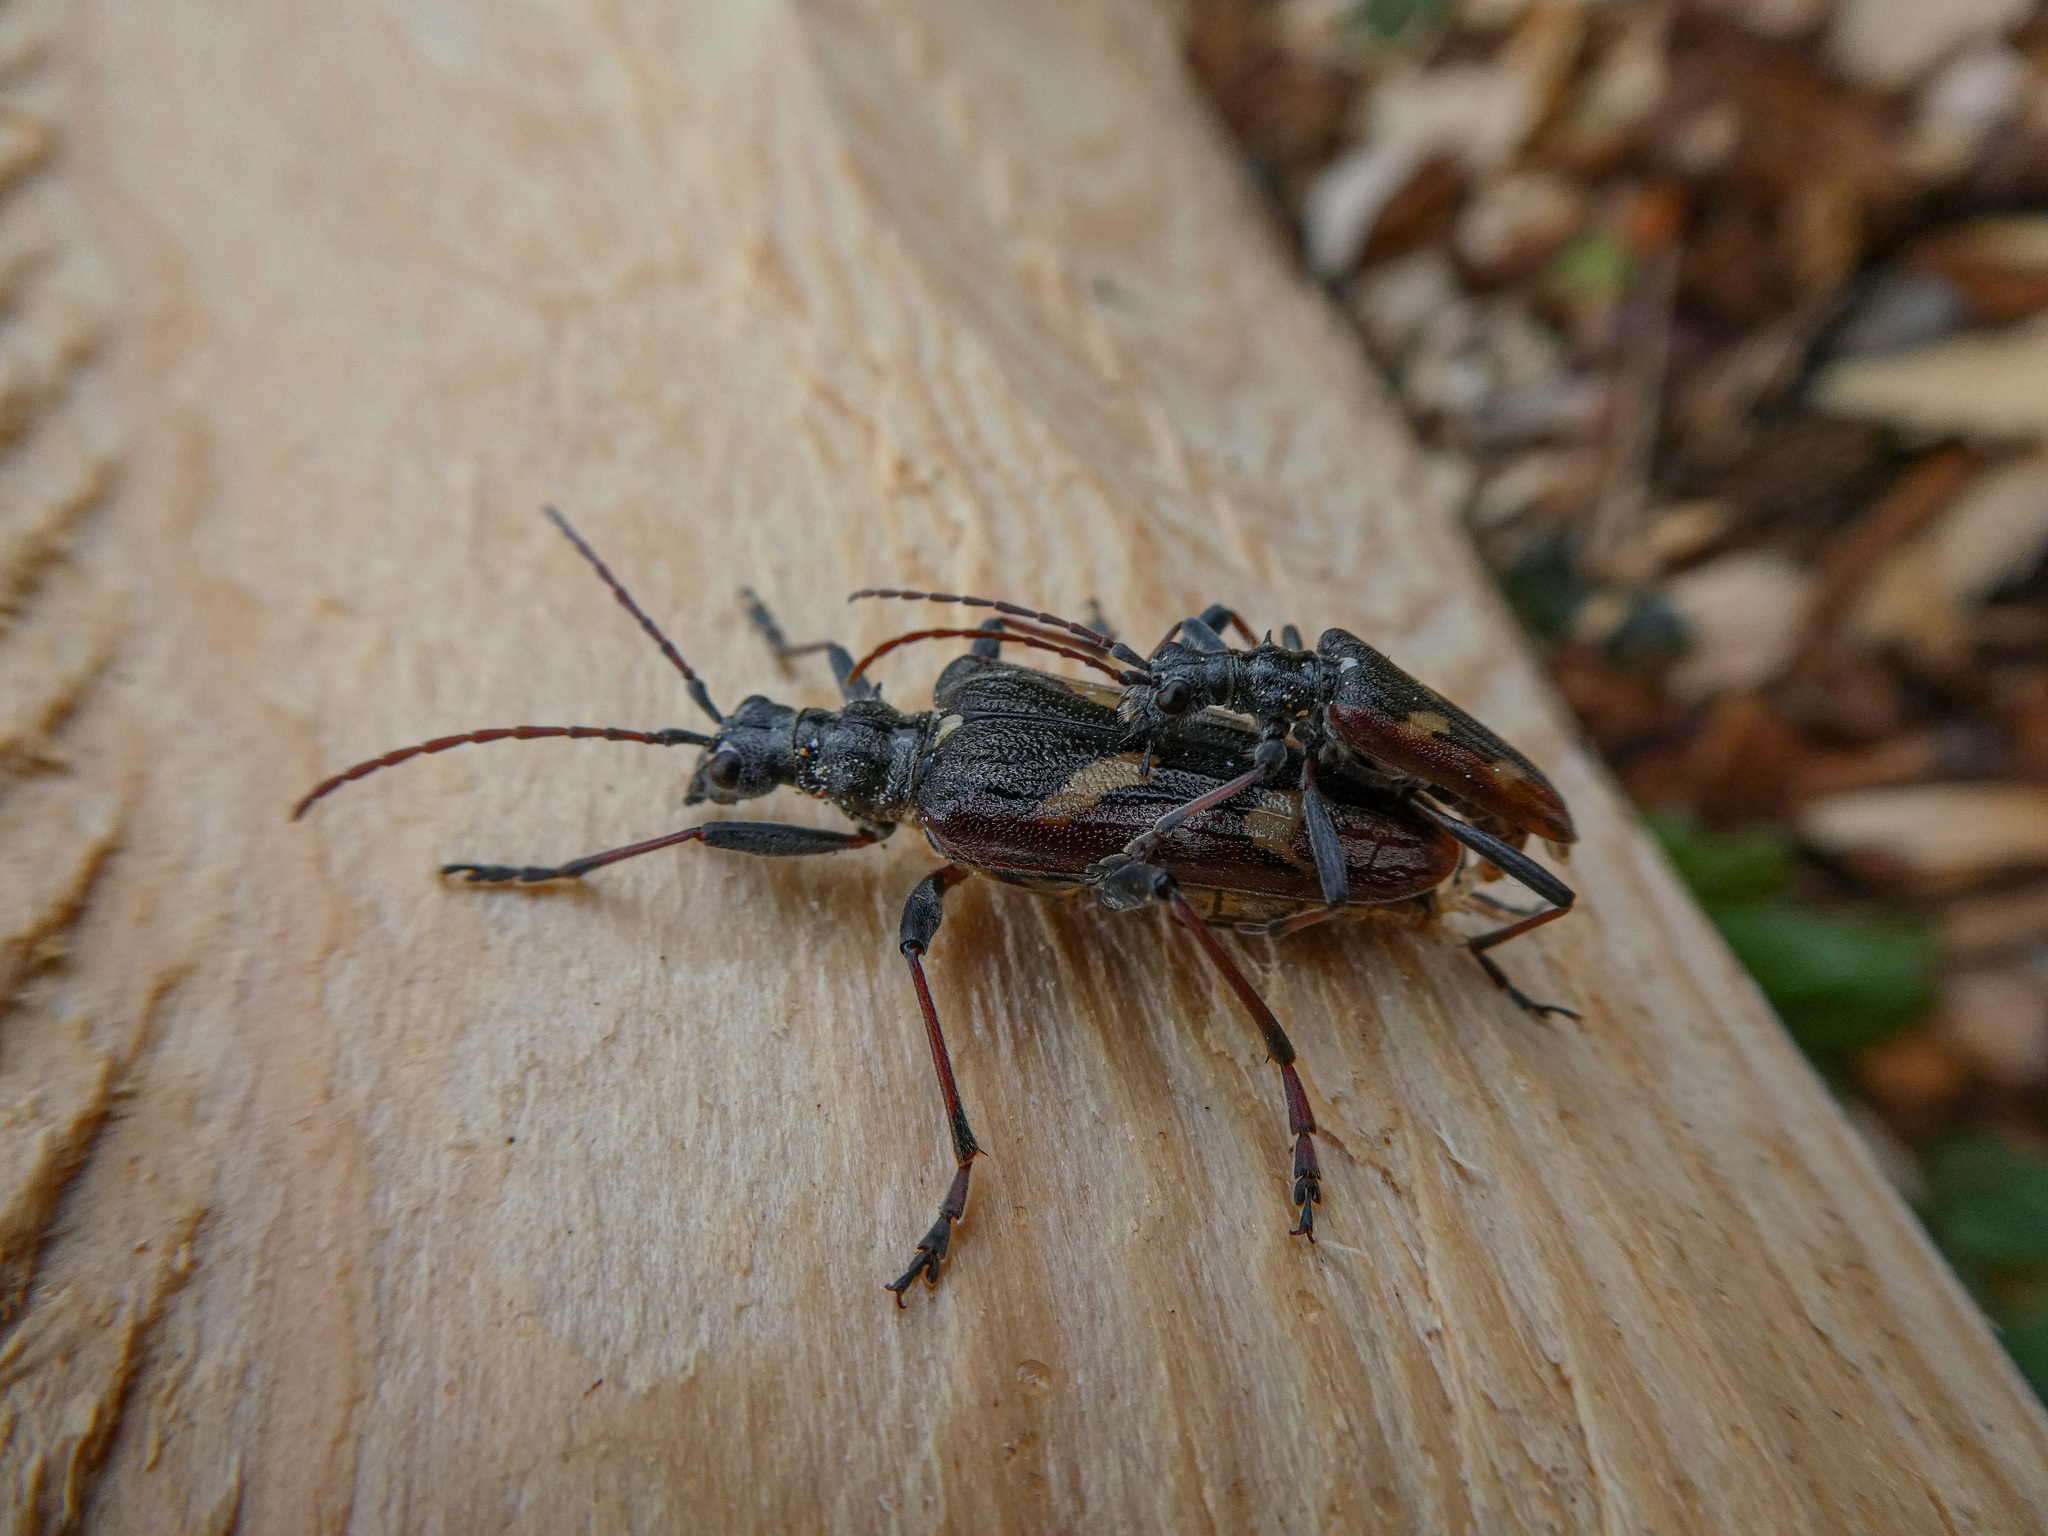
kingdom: Animalia
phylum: Arthropoda
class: Insecta
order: Coleoptera
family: Cerambycidae
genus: Rhagium
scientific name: Rhagium bifasciatum
